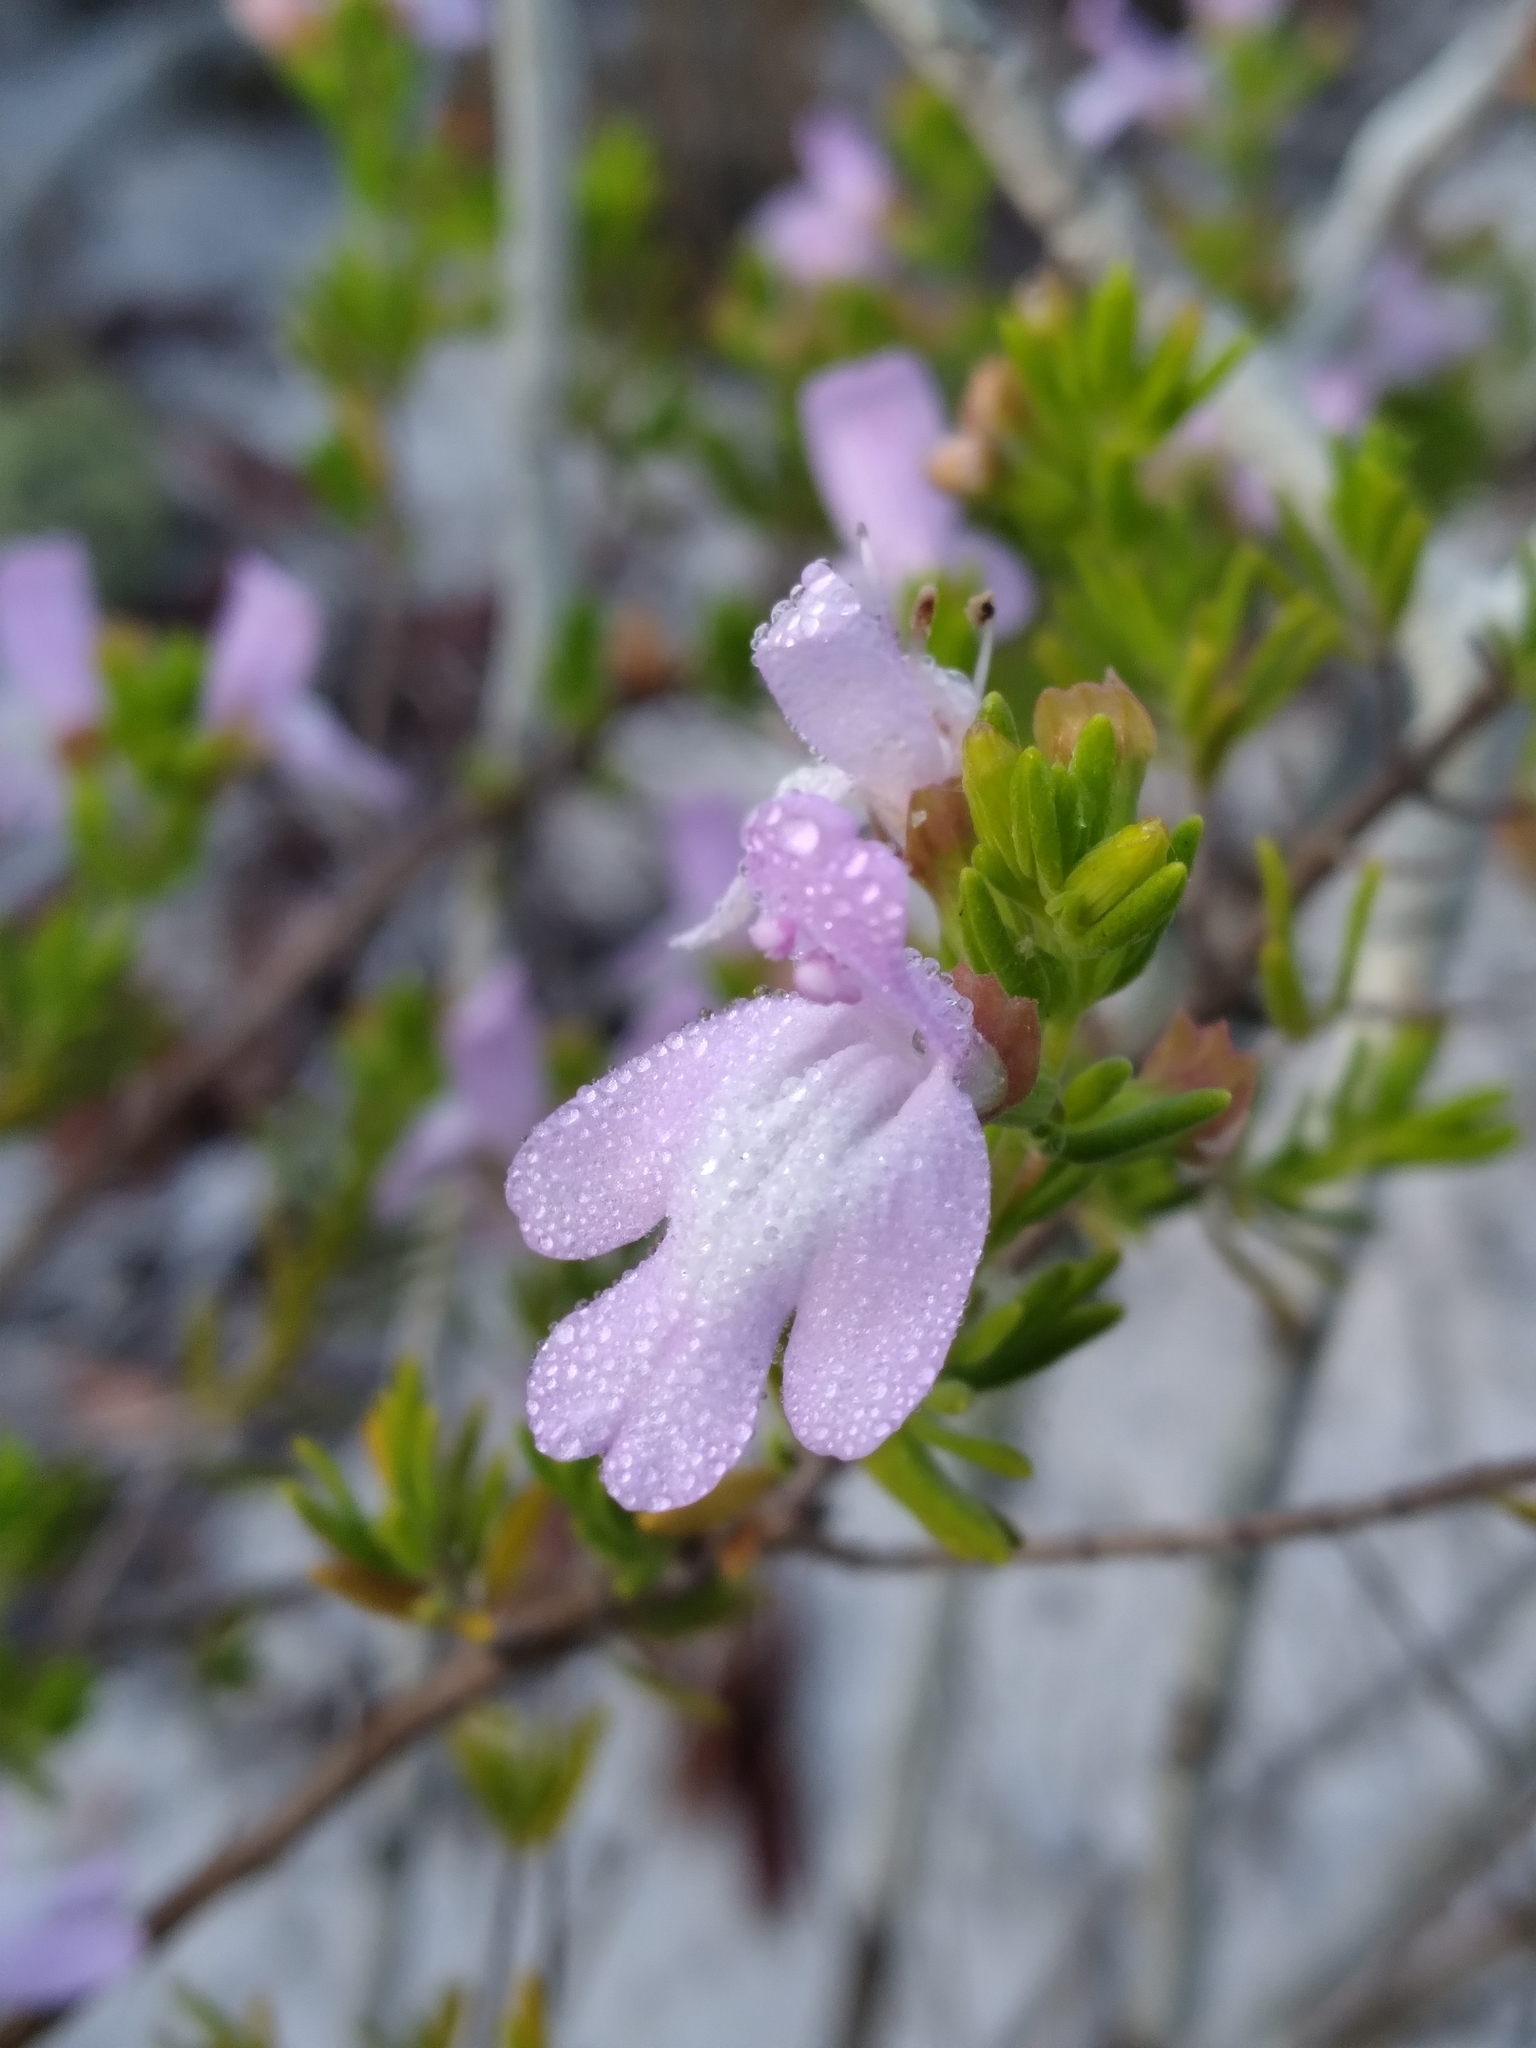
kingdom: Plantae
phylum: Tracheophyta
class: Magnoliopsida
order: Lamiales
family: Lamiaceae
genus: Clinopodium
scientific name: Clinopodium ashei
